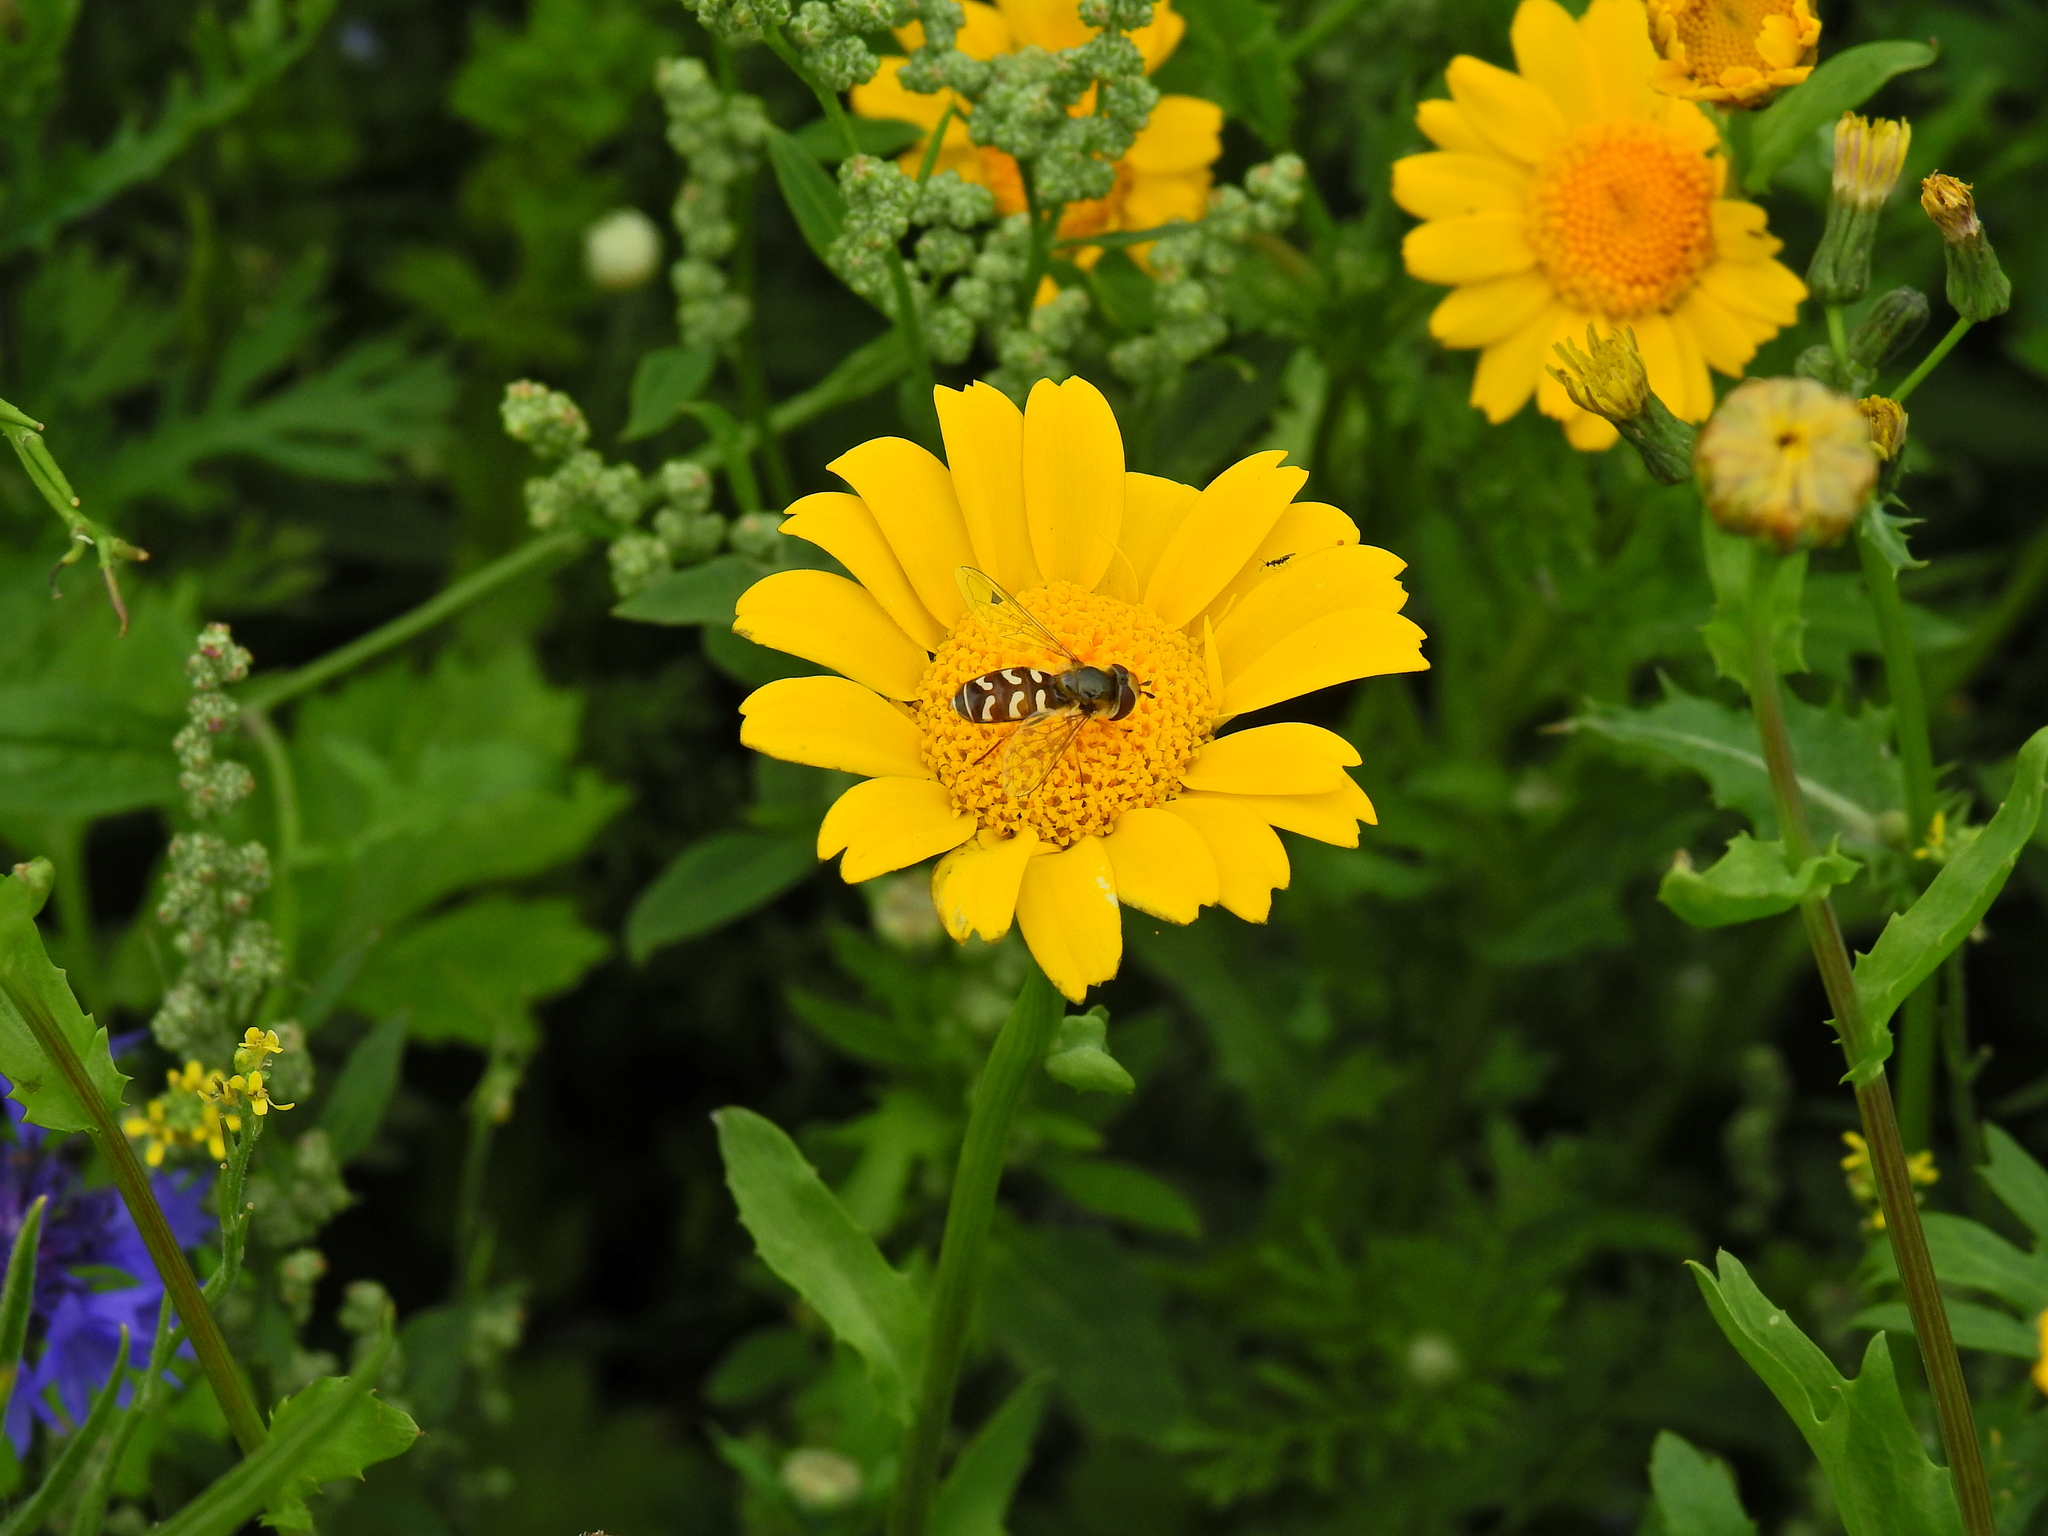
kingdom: Animalia
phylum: Arthropoda
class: Insecta
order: Diptera
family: Syrphidae
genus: Scaeva
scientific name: Scaeva pyrastri
